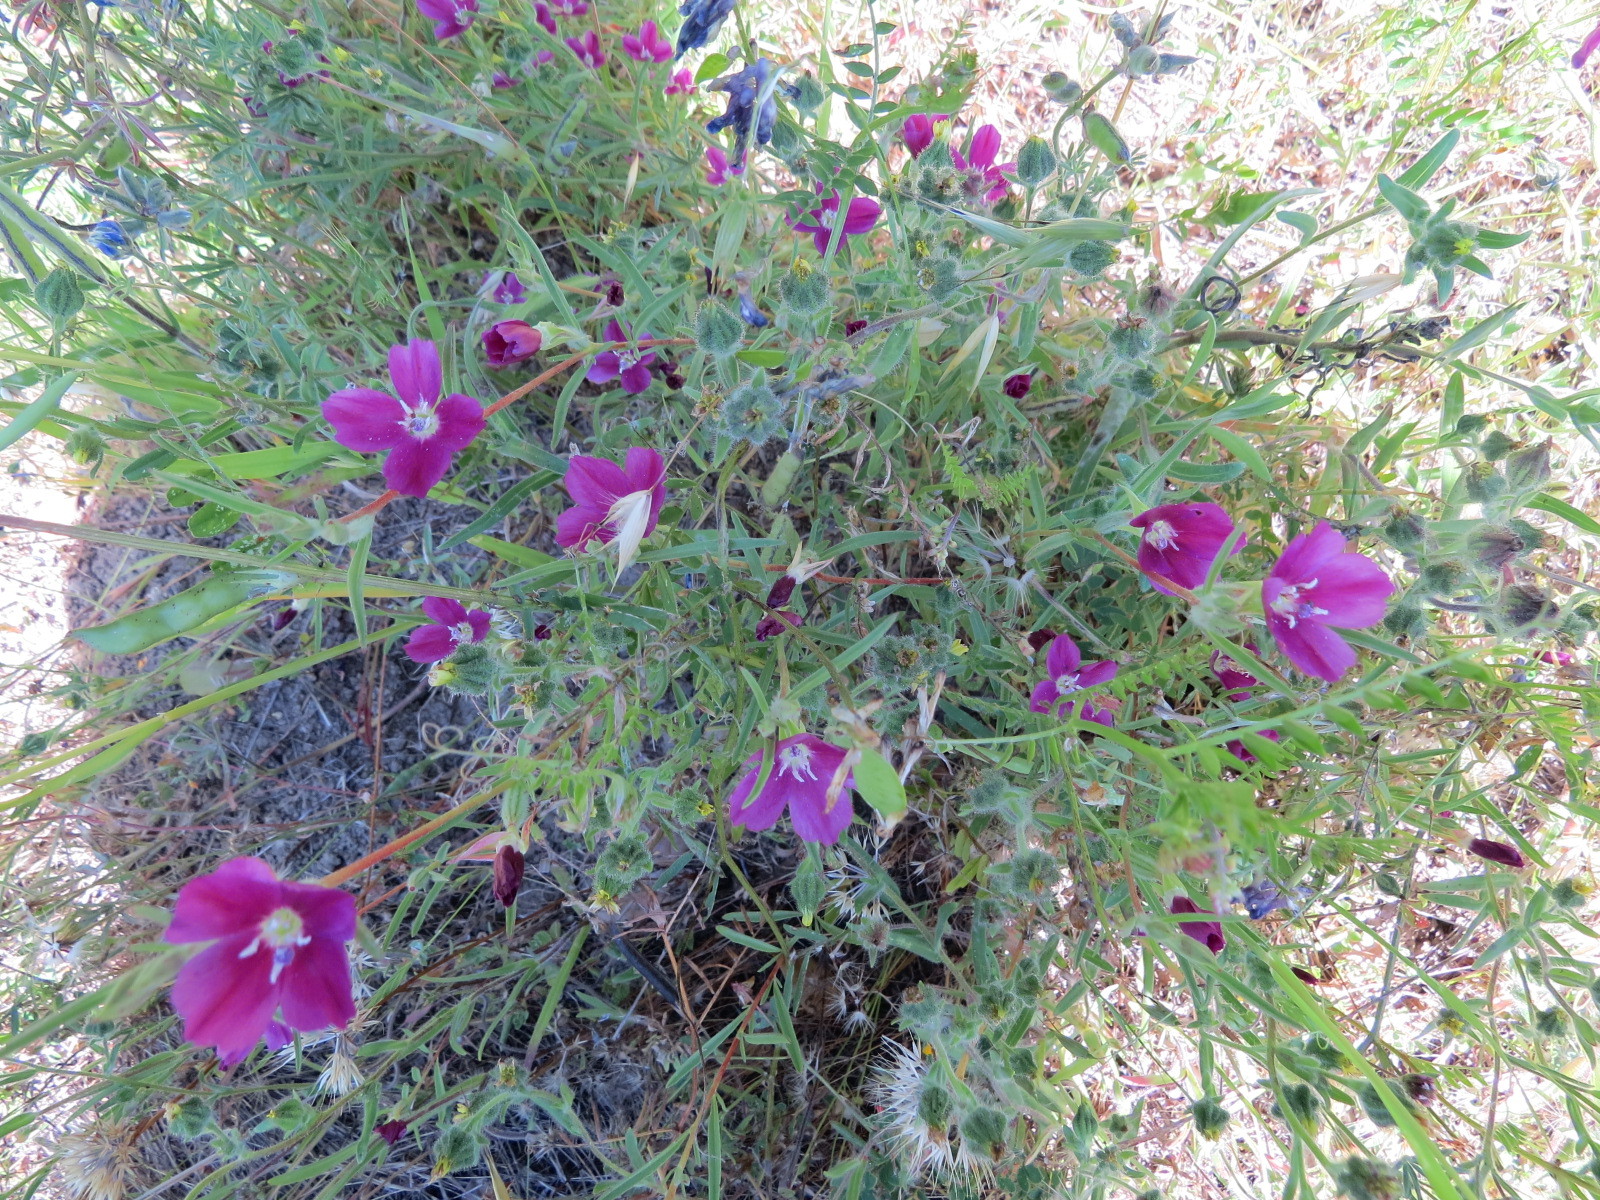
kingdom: Plantae
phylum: Tracheophyta
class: Magnoliopsida
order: Myrtales
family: Onagraceae
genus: Clarkia
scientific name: Clarkia purpurea
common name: Purple clarkia
